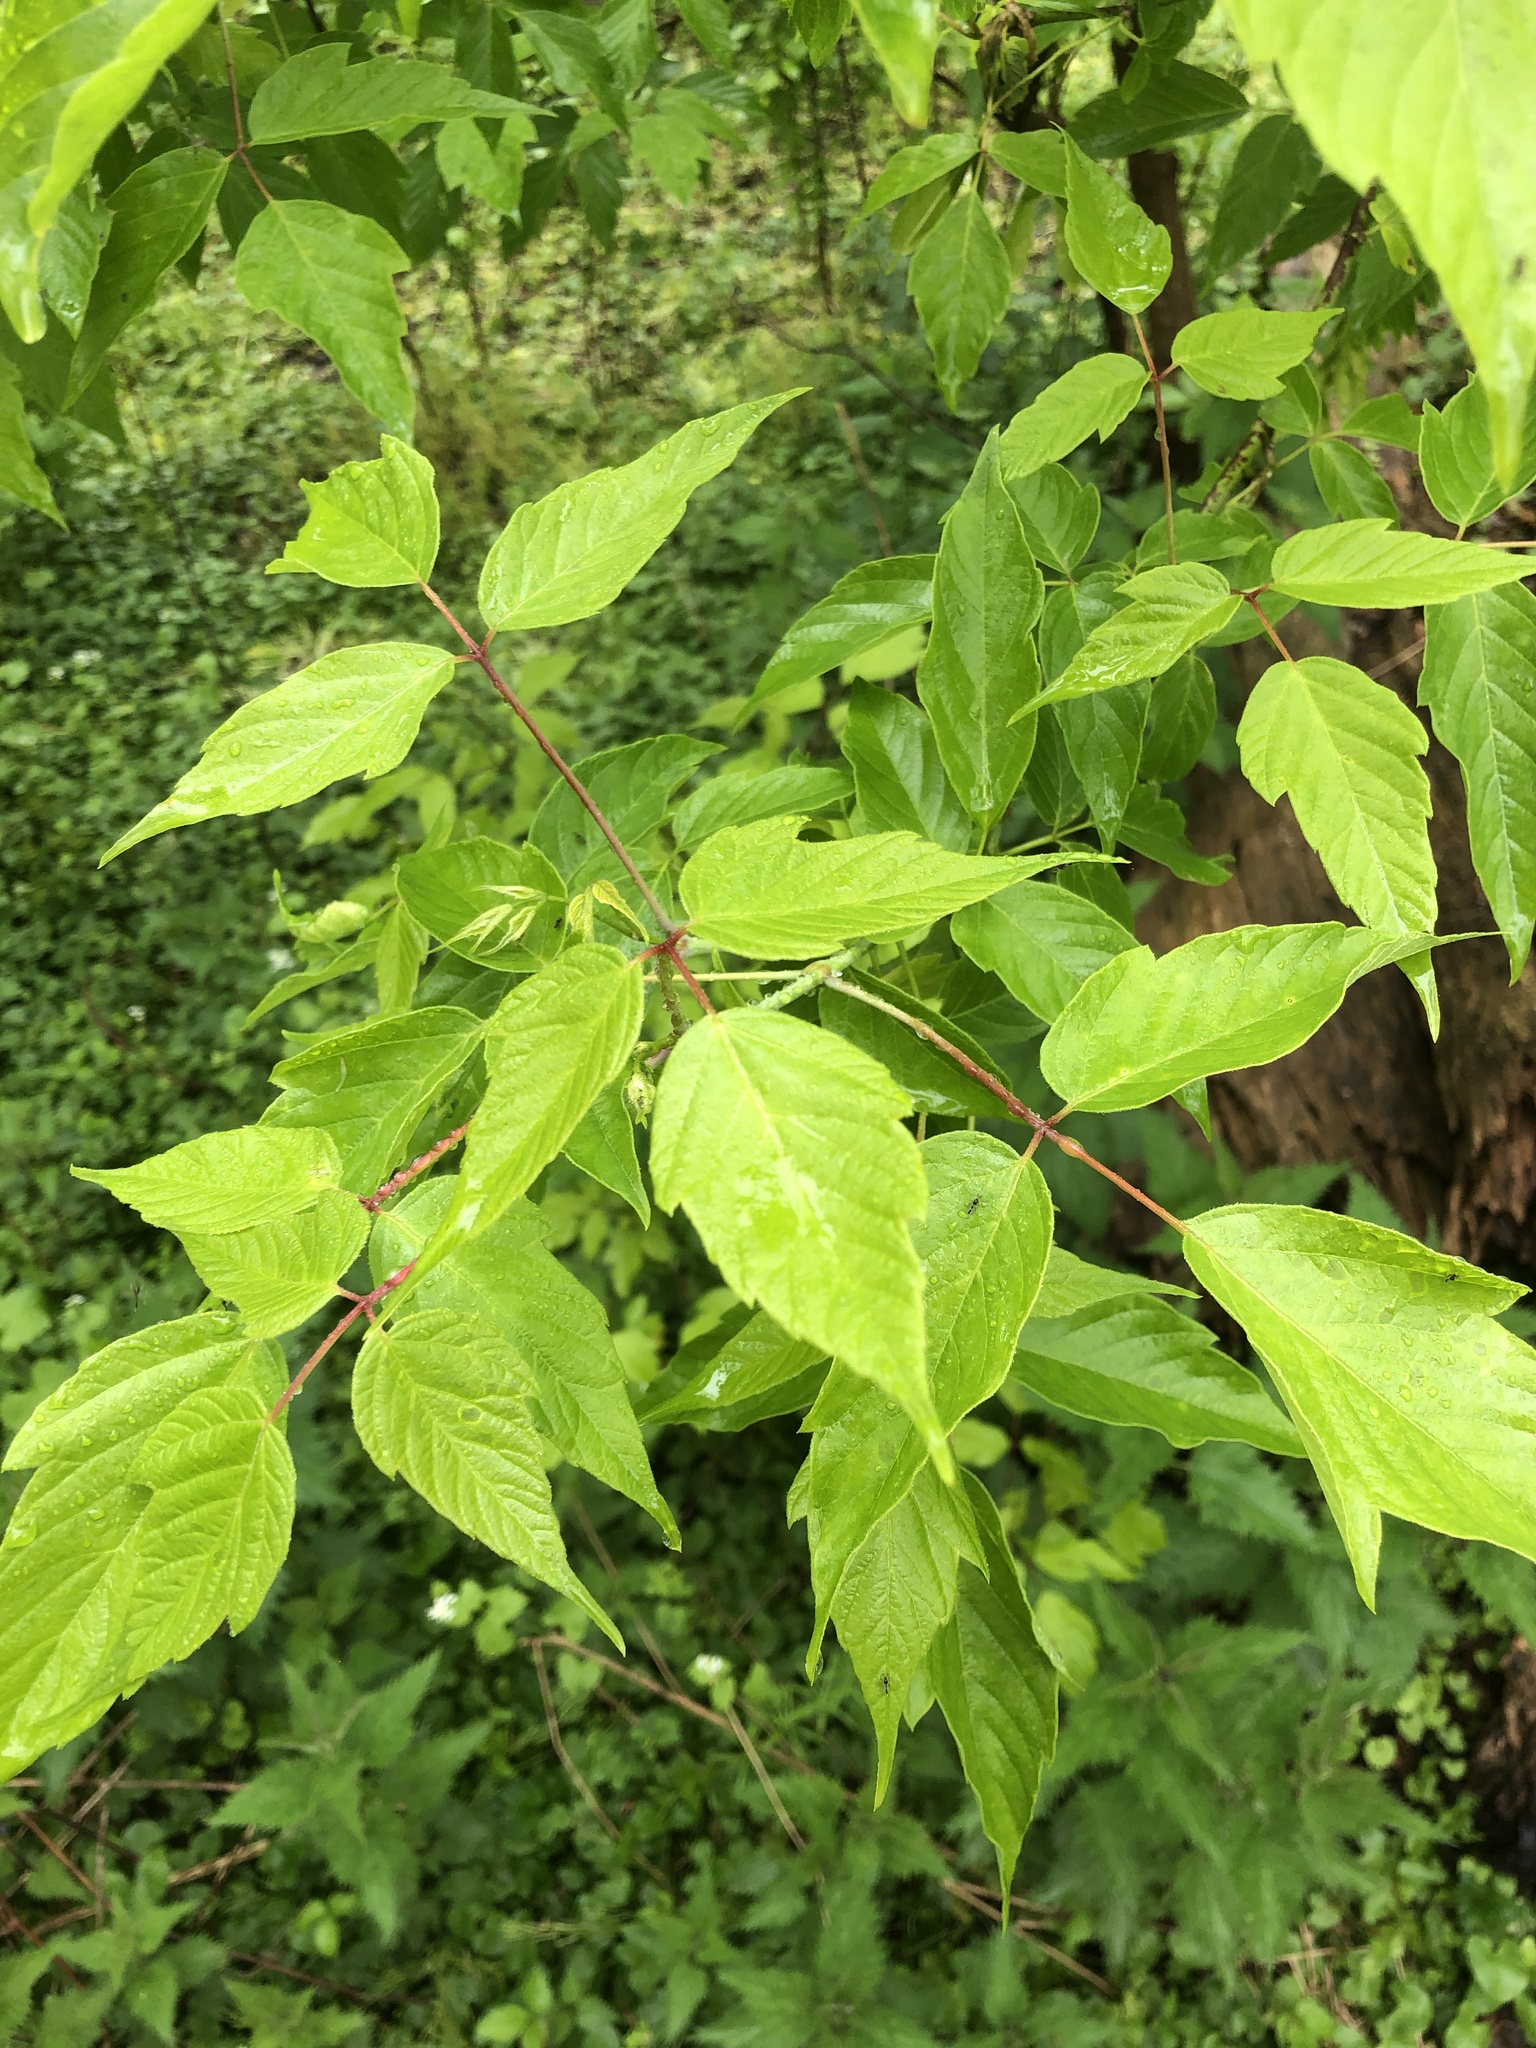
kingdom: Plantae
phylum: Tracheophyta
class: Magnoliopsida
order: Sapindales
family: Sapindaceae
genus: Acer
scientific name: Acer negundo
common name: Ashleaf maple
